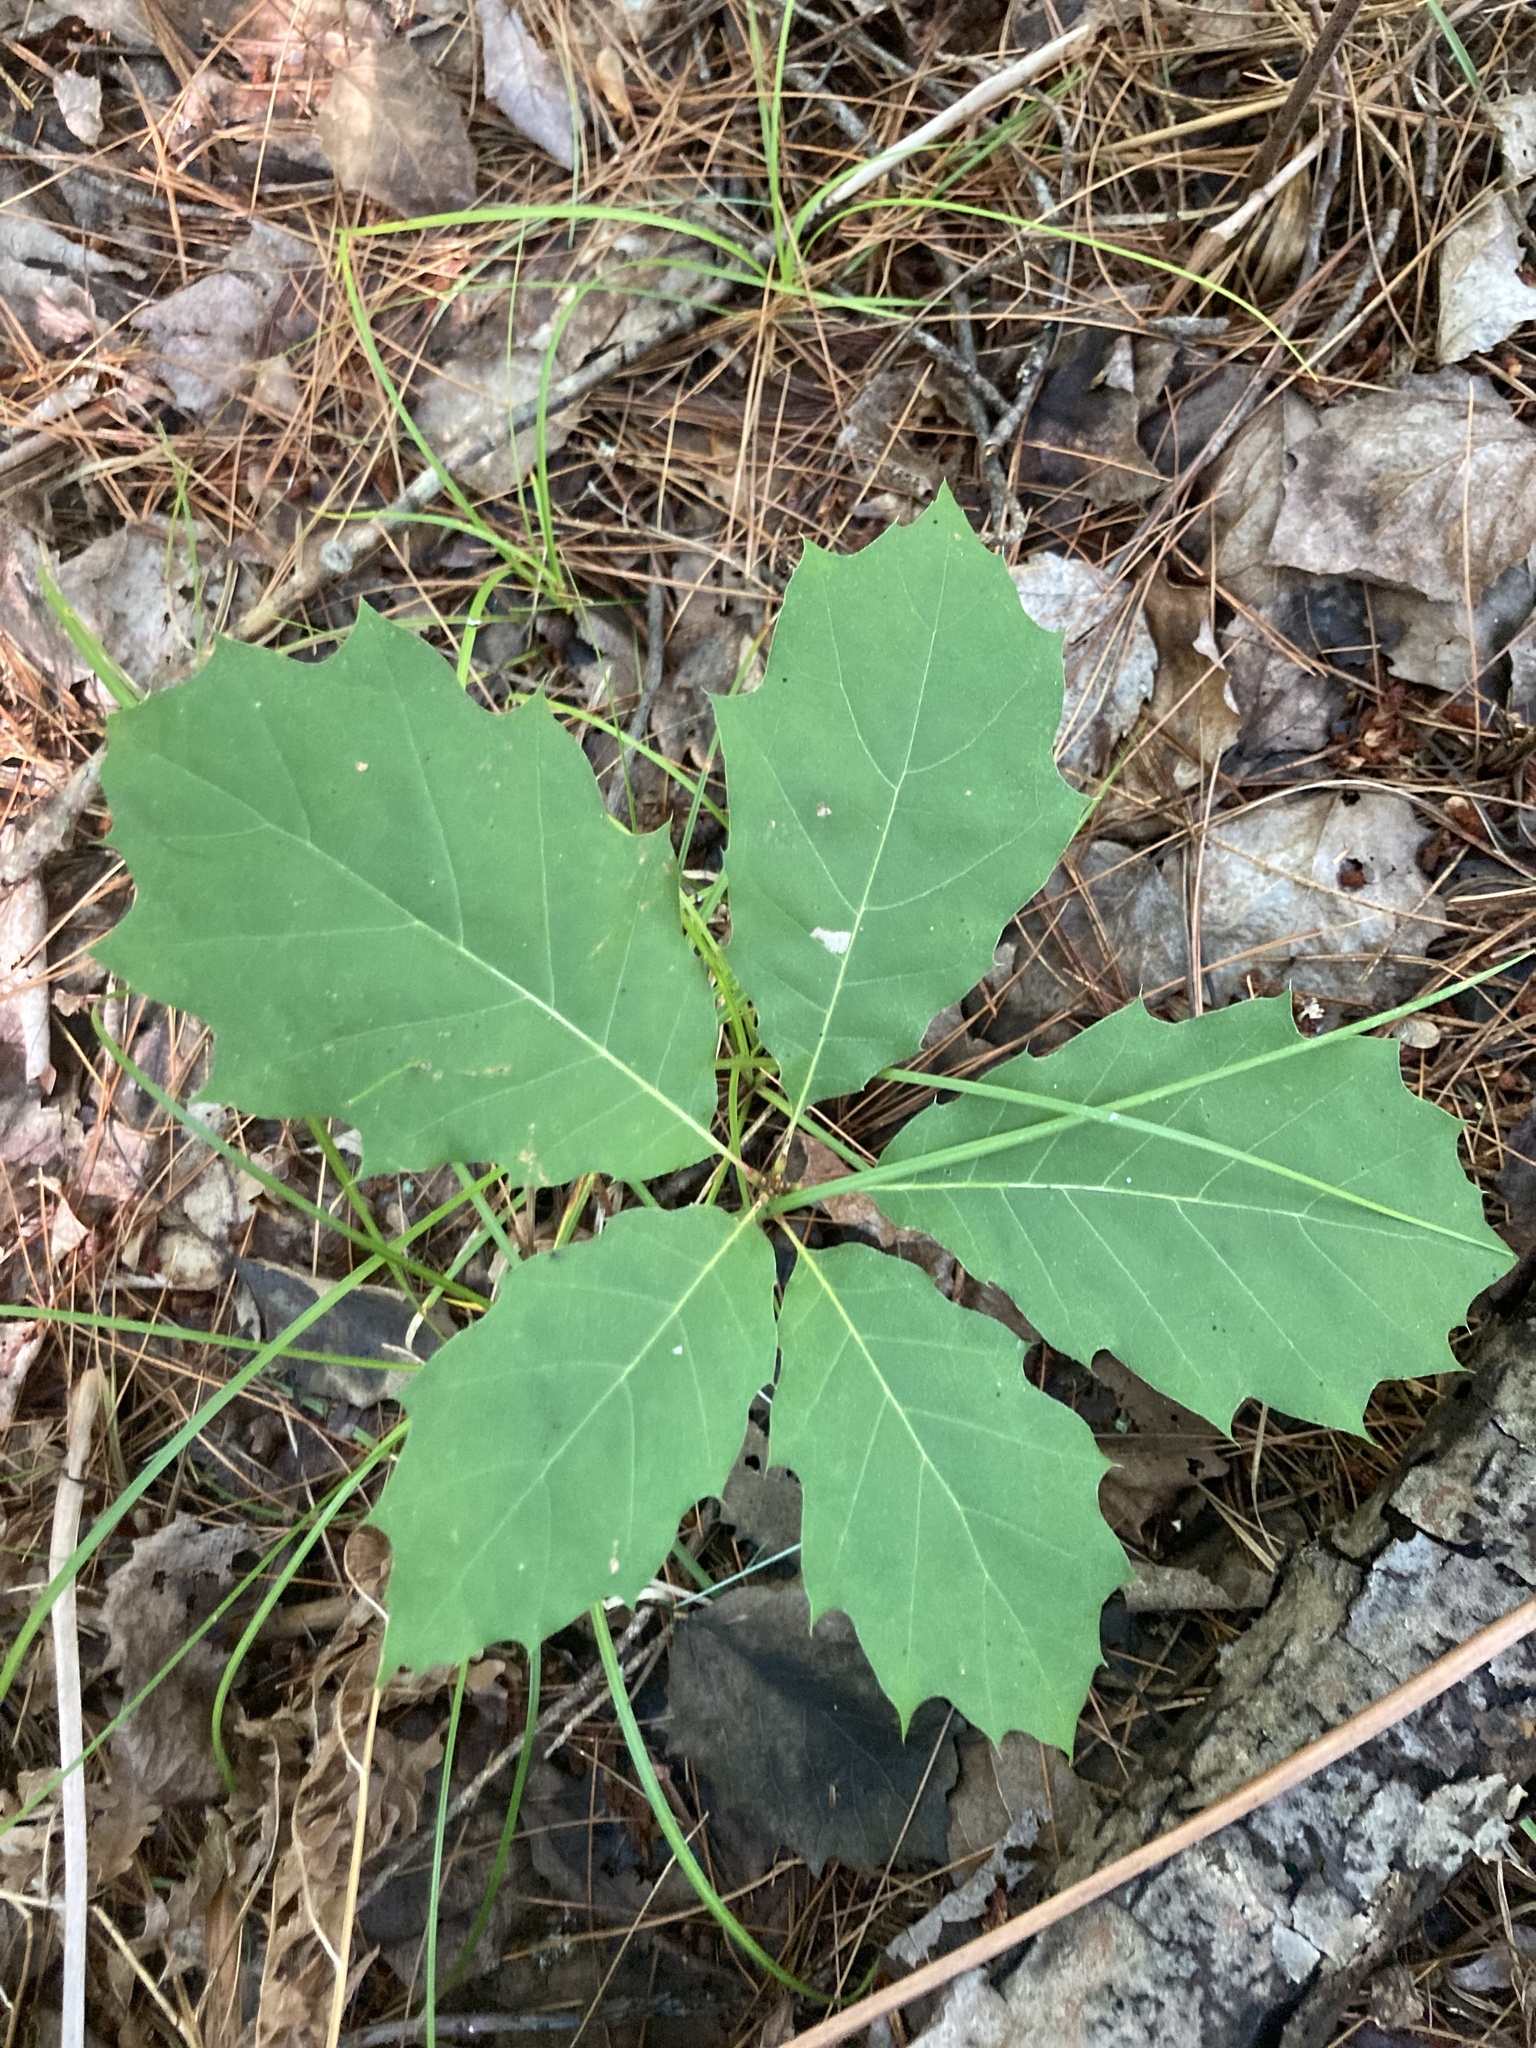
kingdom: Plantae
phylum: Tracheophyta
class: Magnoliopsida
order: Fagales
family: Fagaceae
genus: Quercus
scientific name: Quercus rubra
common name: Red oak
